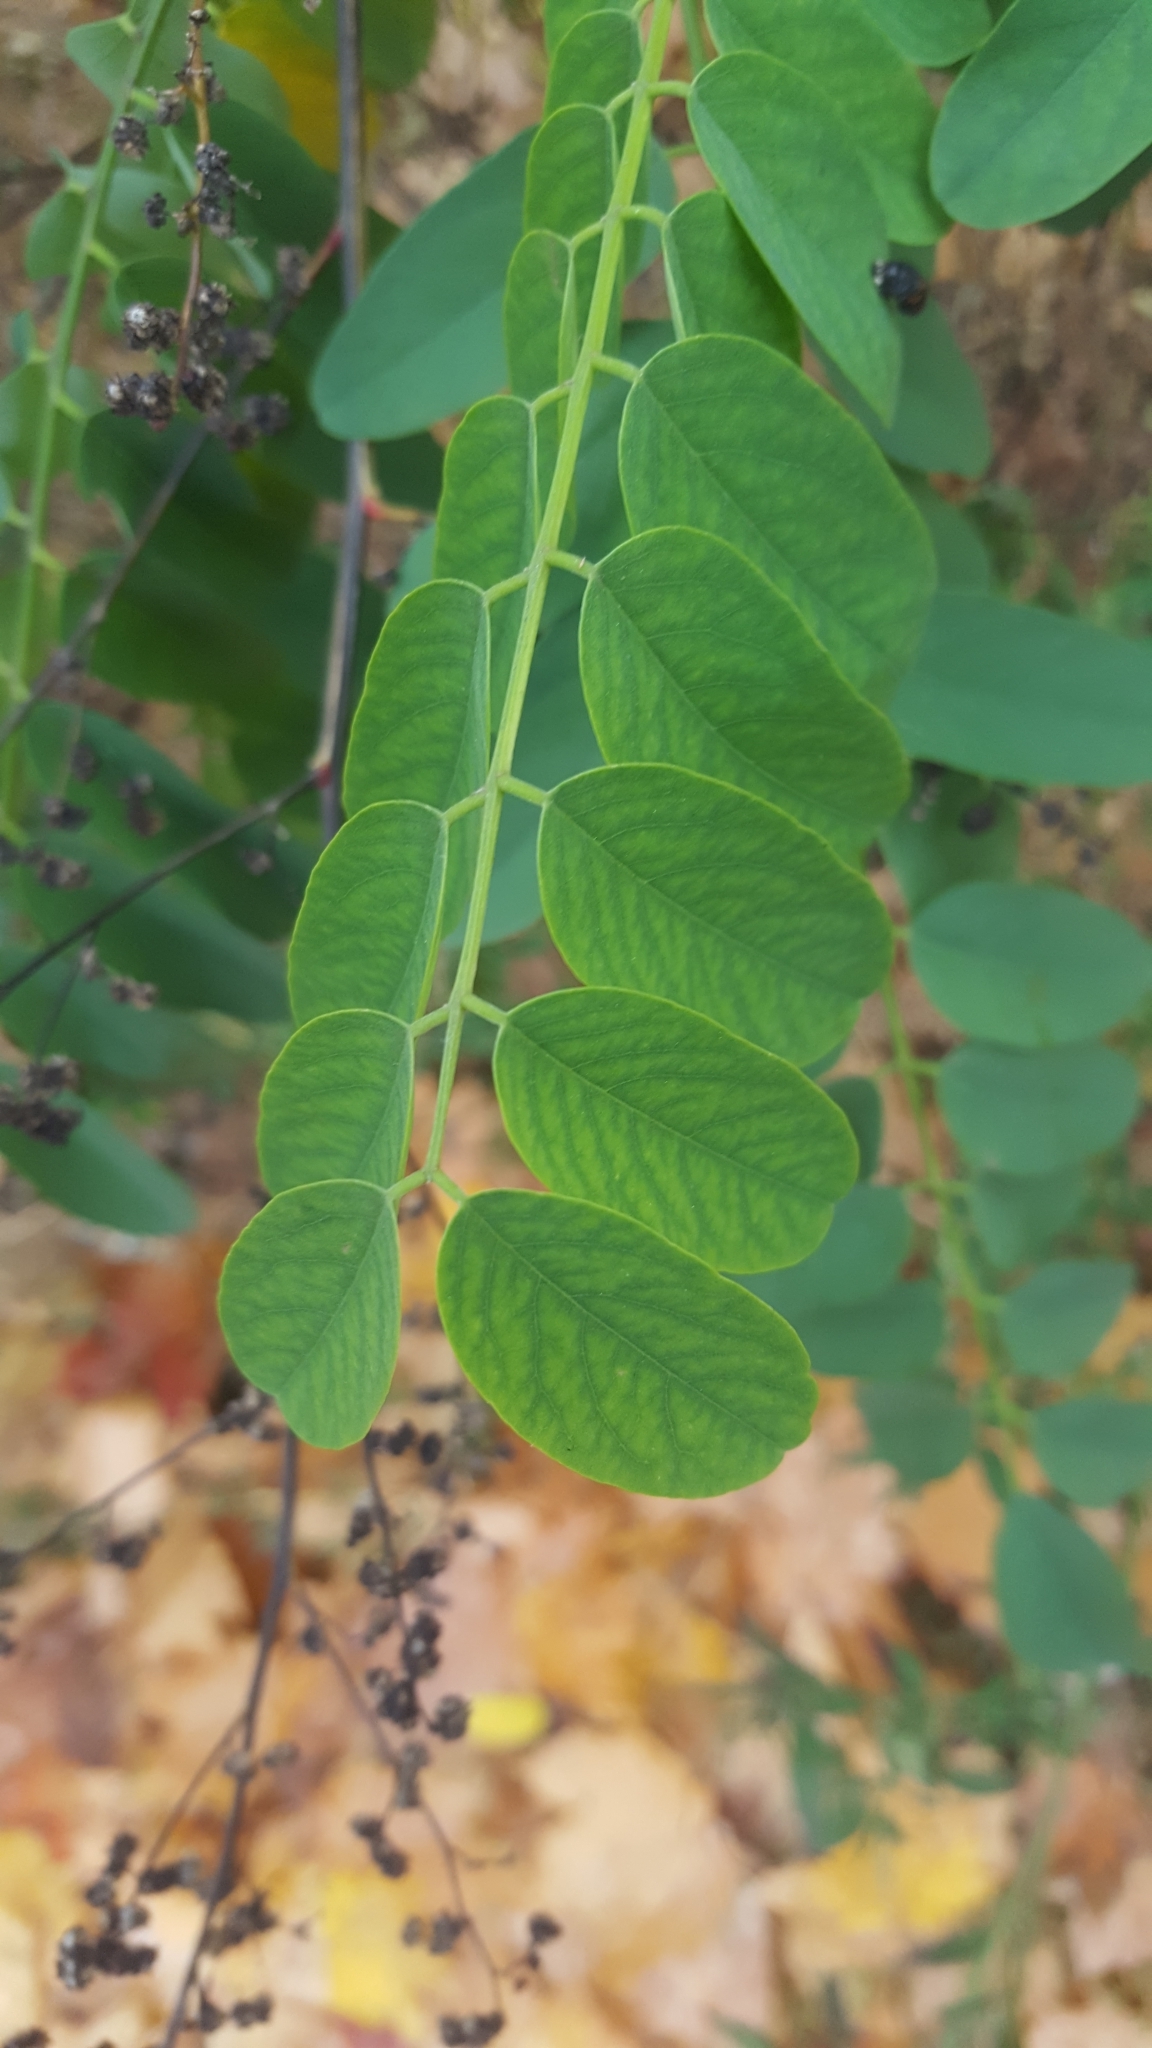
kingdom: Plantae
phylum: Tracheophyta
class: Magnoliopsida
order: Fabales
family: Fabaceae
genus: Robinia
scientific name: Robinia pseudoacacia
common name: Black locust
